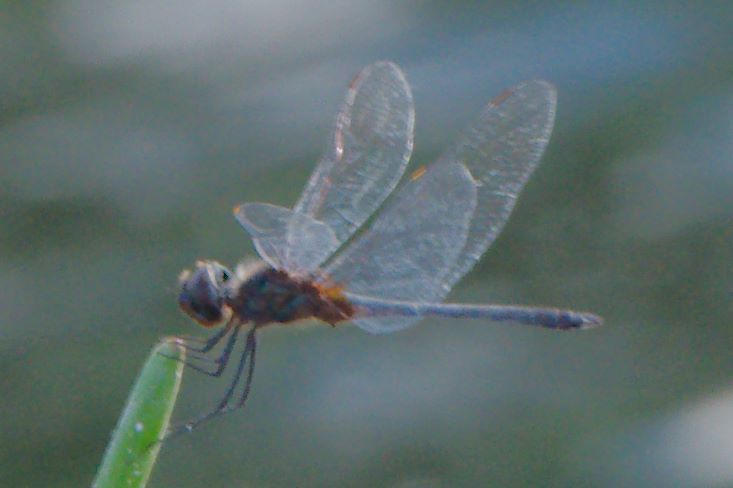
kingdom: Animalia
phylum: Arthropoda
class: Insecta
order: Odonata
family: Libellulidae
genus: Idiataphe
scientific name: Idiataphe cubensis
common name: Metallic pennant
